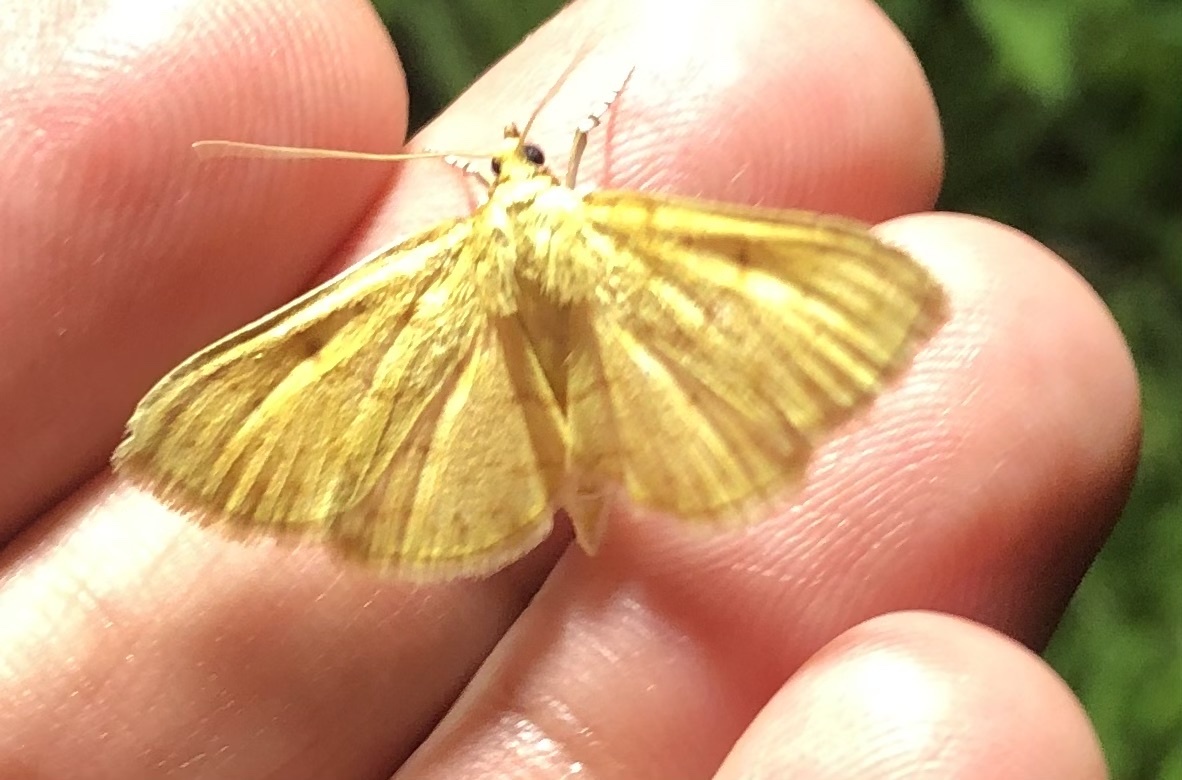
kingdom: Animalia
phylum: Arthropoda
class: Insecta
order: Lepidoptera
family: Crambidae
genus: Condylorrhiza
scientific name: Condylorrhiza vestigialis
